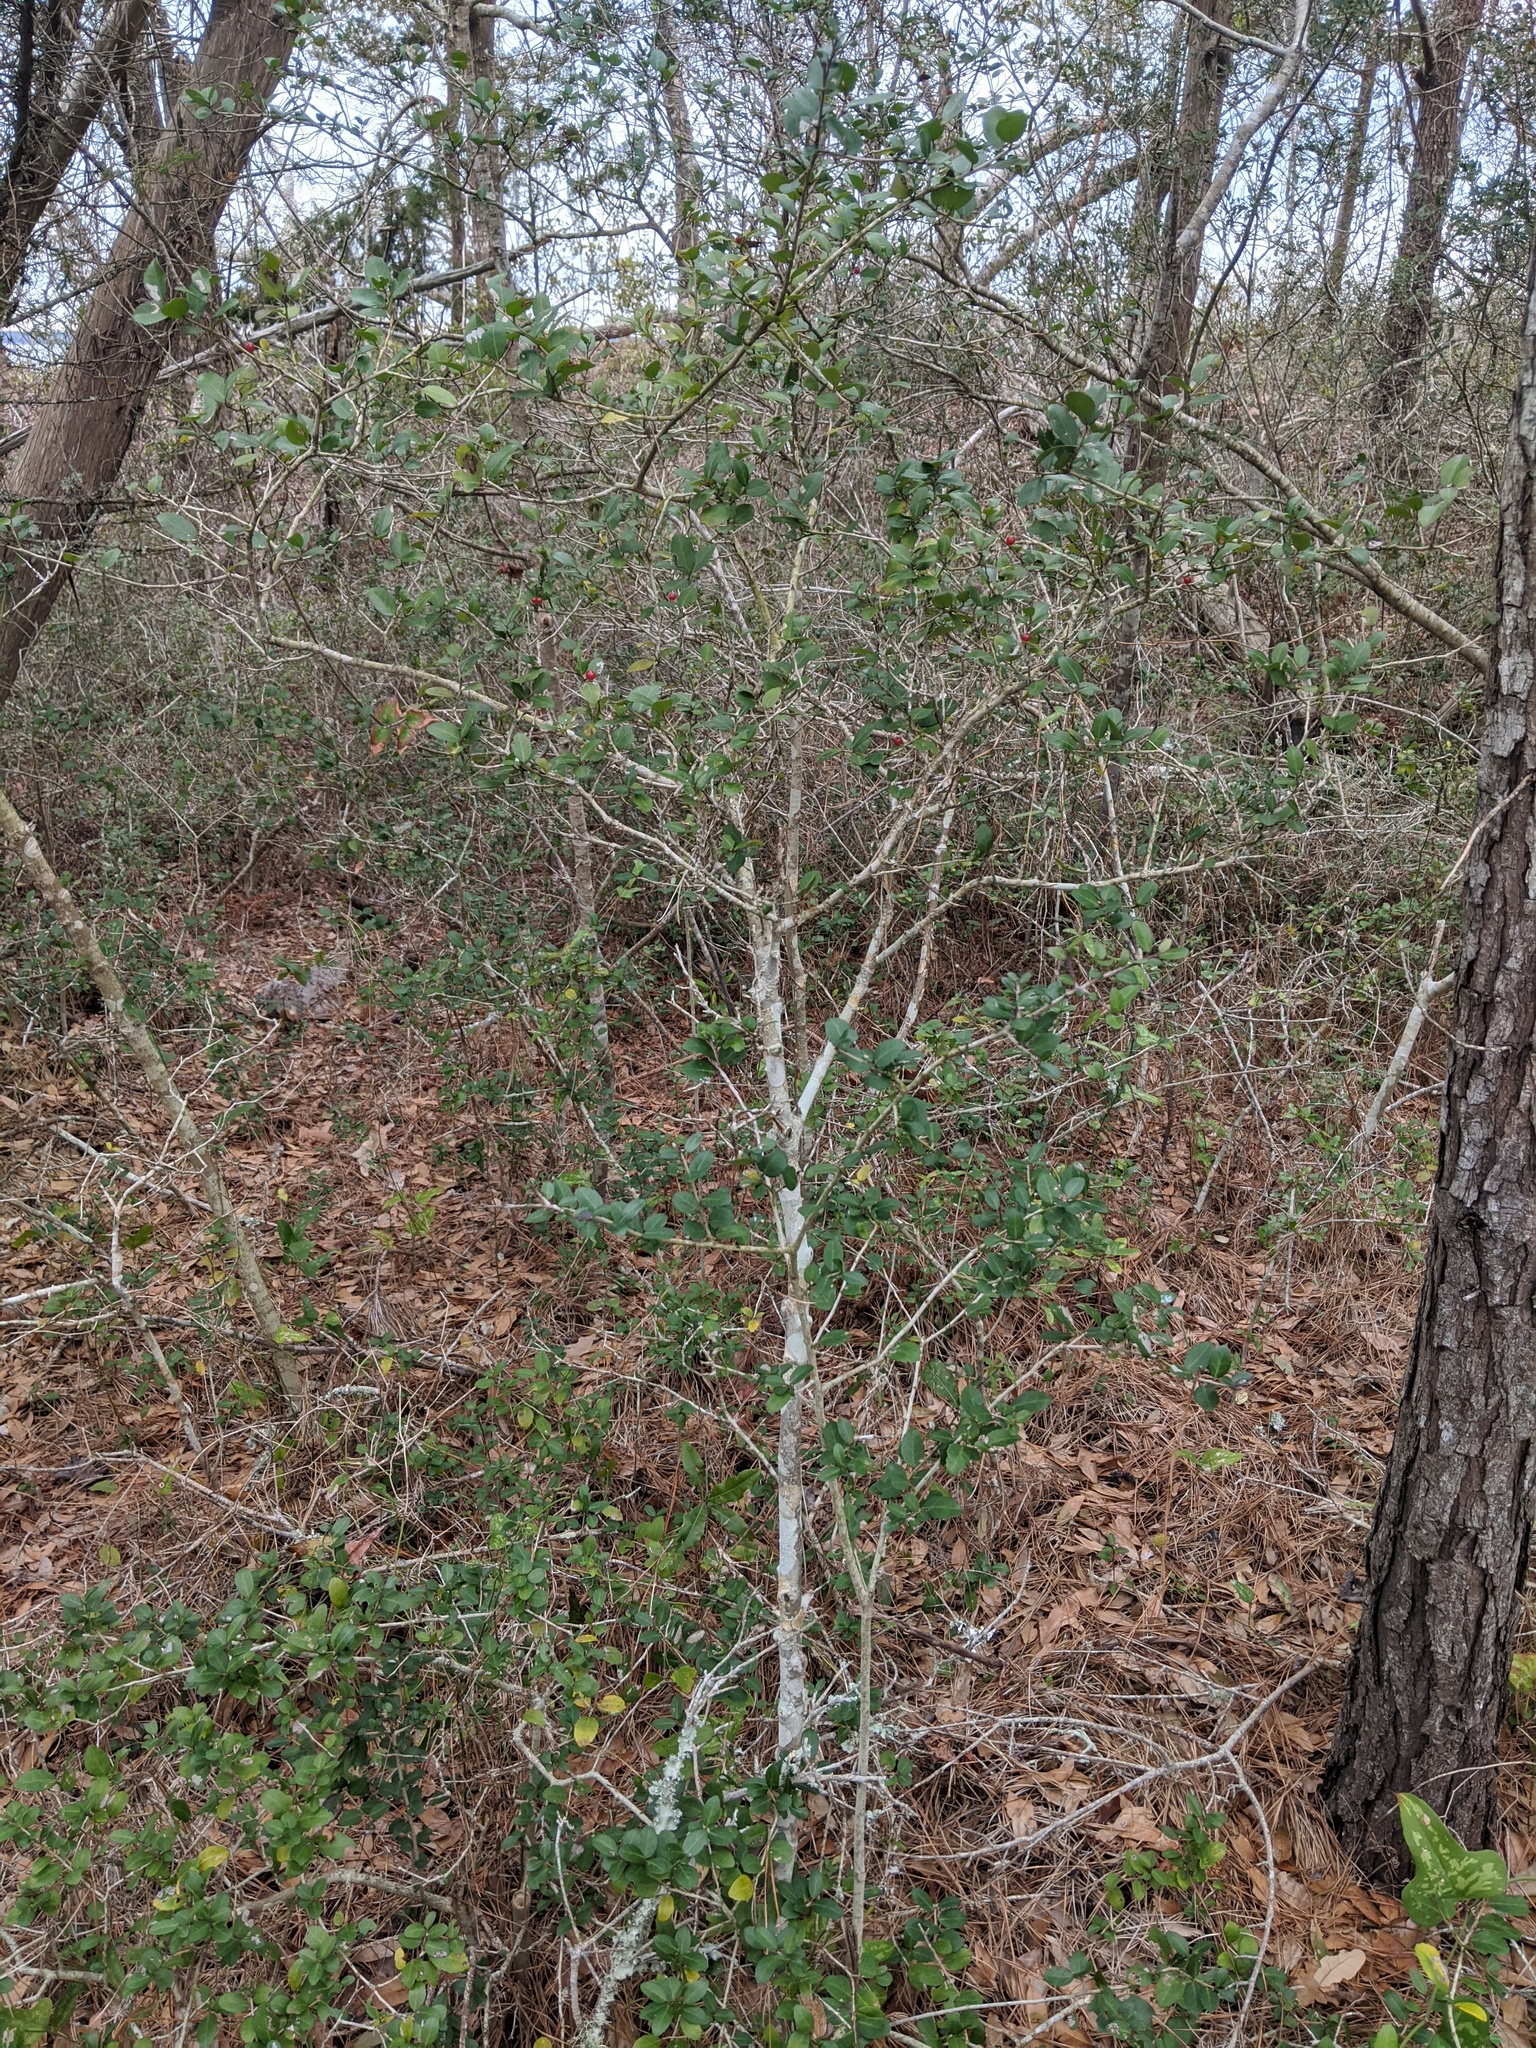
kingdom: Plantae
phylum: Tracheophyta
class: Magnoliopsida
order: Aquifoliales
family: Aquifoliaceae
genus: Ilex
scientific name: Ilex vomitoria
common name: Yaupon holly
